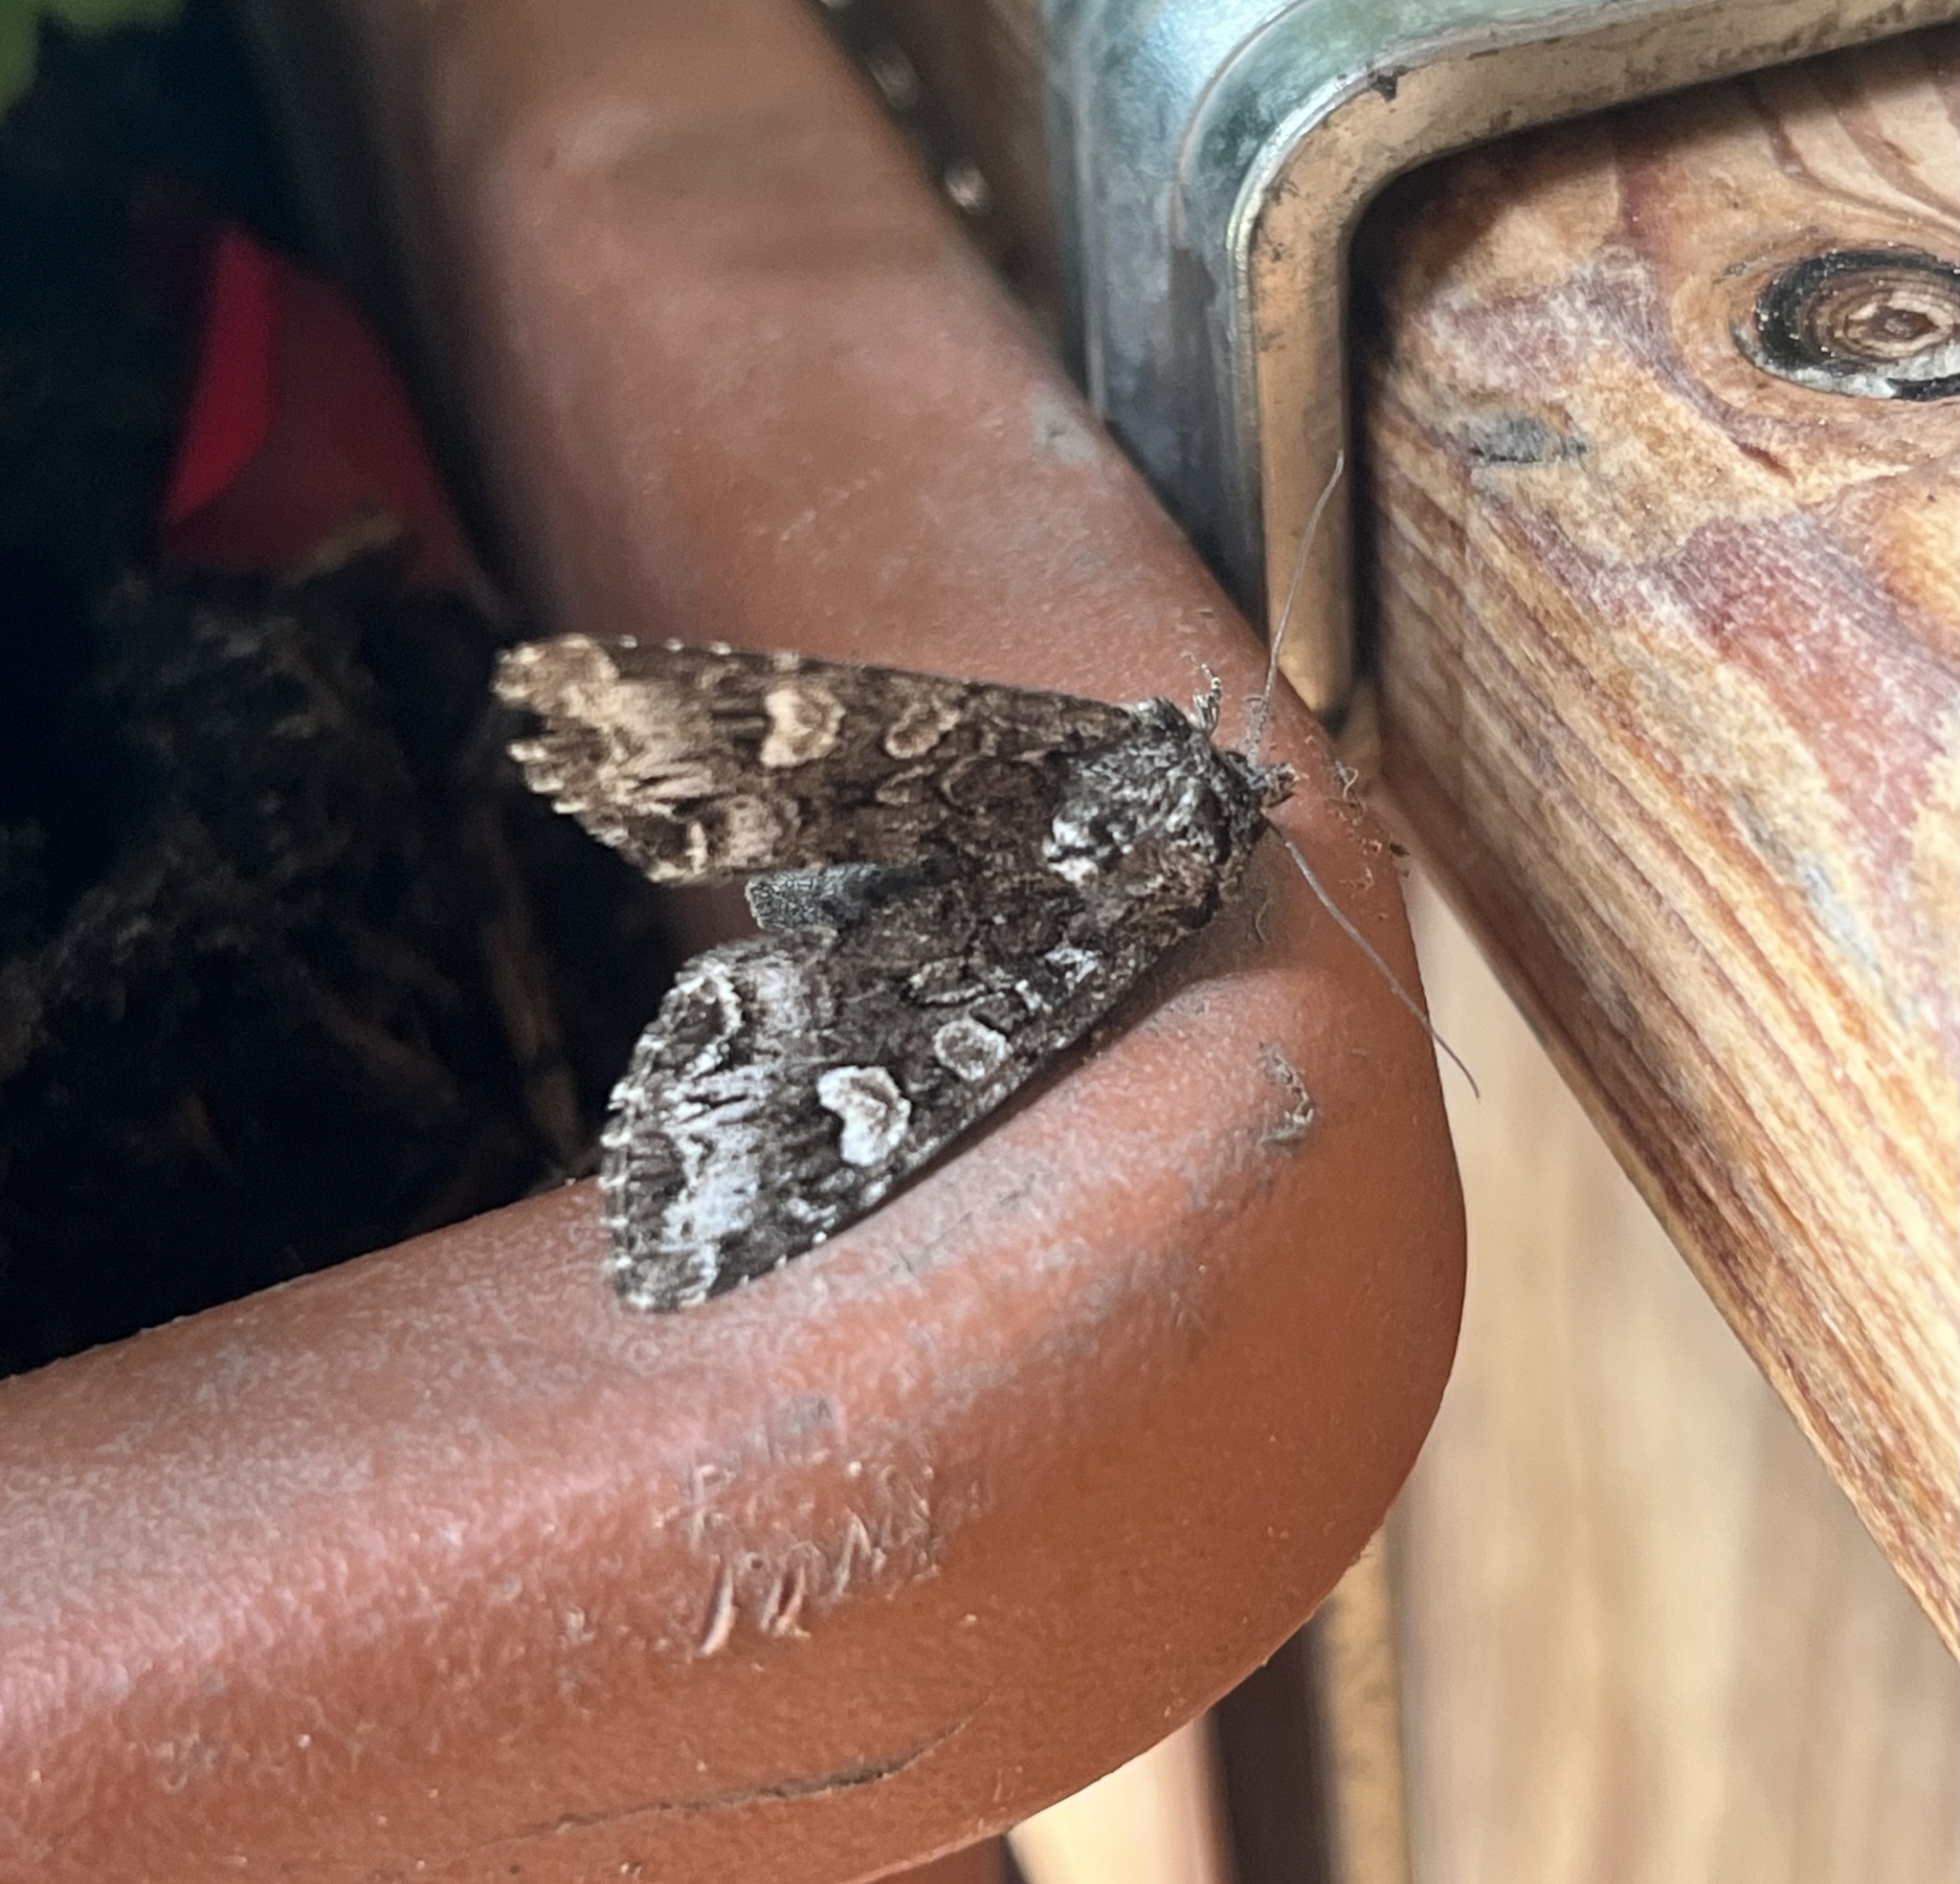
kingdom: Animalia
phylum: Arthropoda
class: Insecta
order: Lepidoptera
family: Noctuidae
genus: Papestra
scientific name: Papestra biren
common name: Glaucous shears
